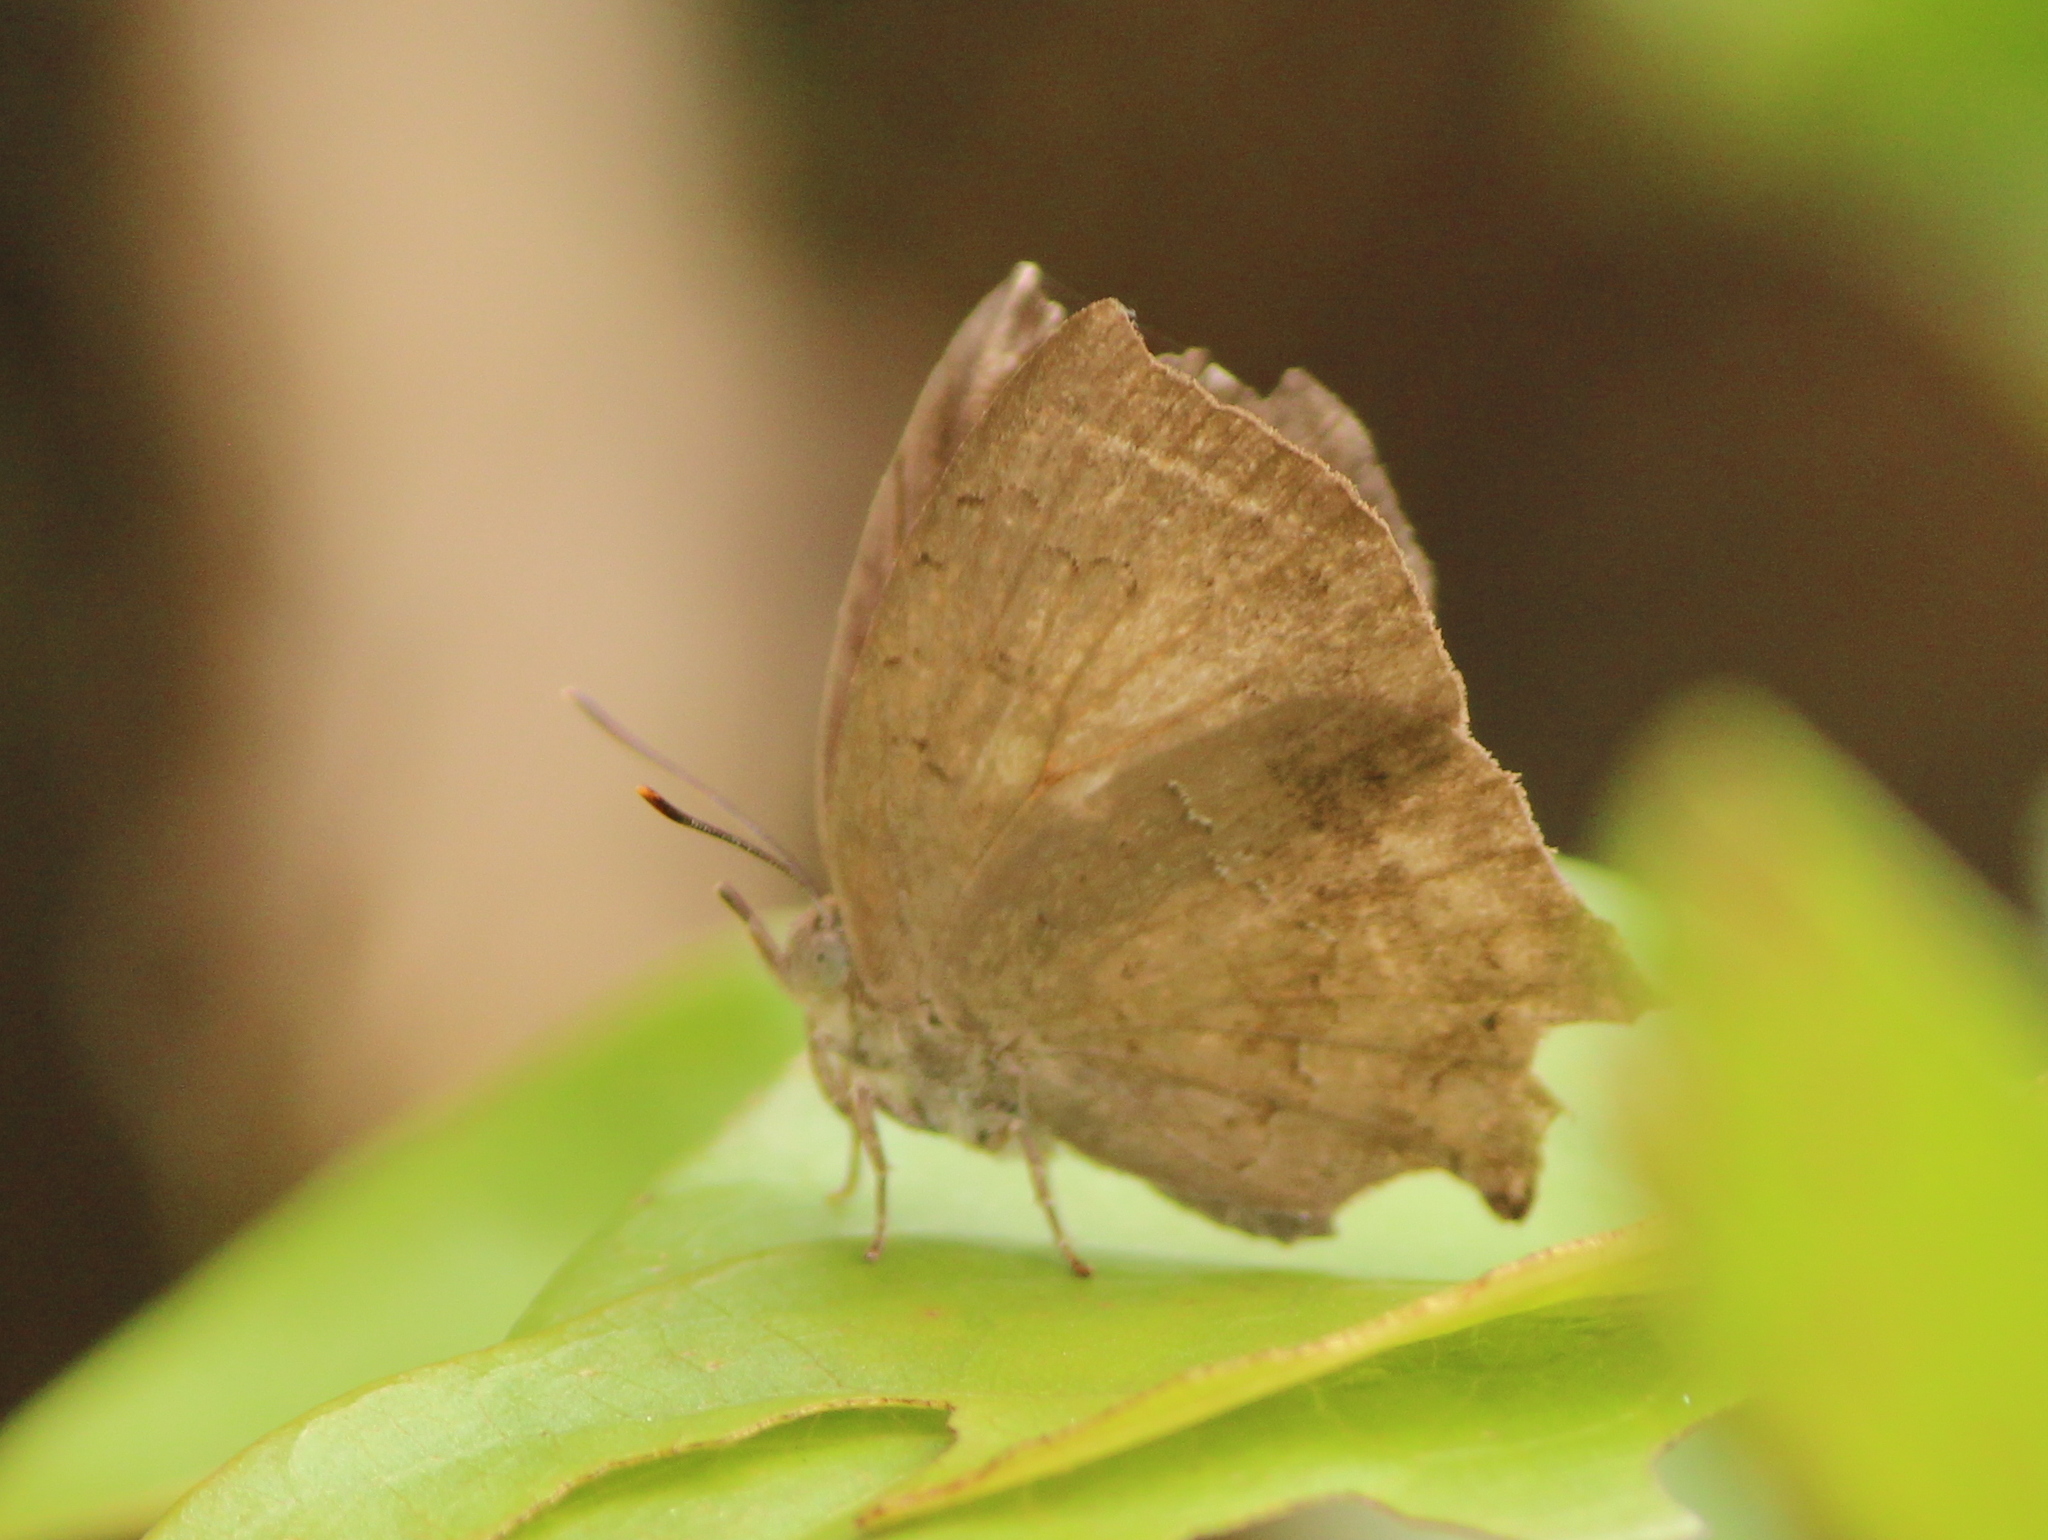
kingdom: Animalia
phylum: Arthropoda
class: Insecta
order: Lepidoptera
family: Lycaenidae
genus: Surendra
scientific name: Surendra quercetorum
